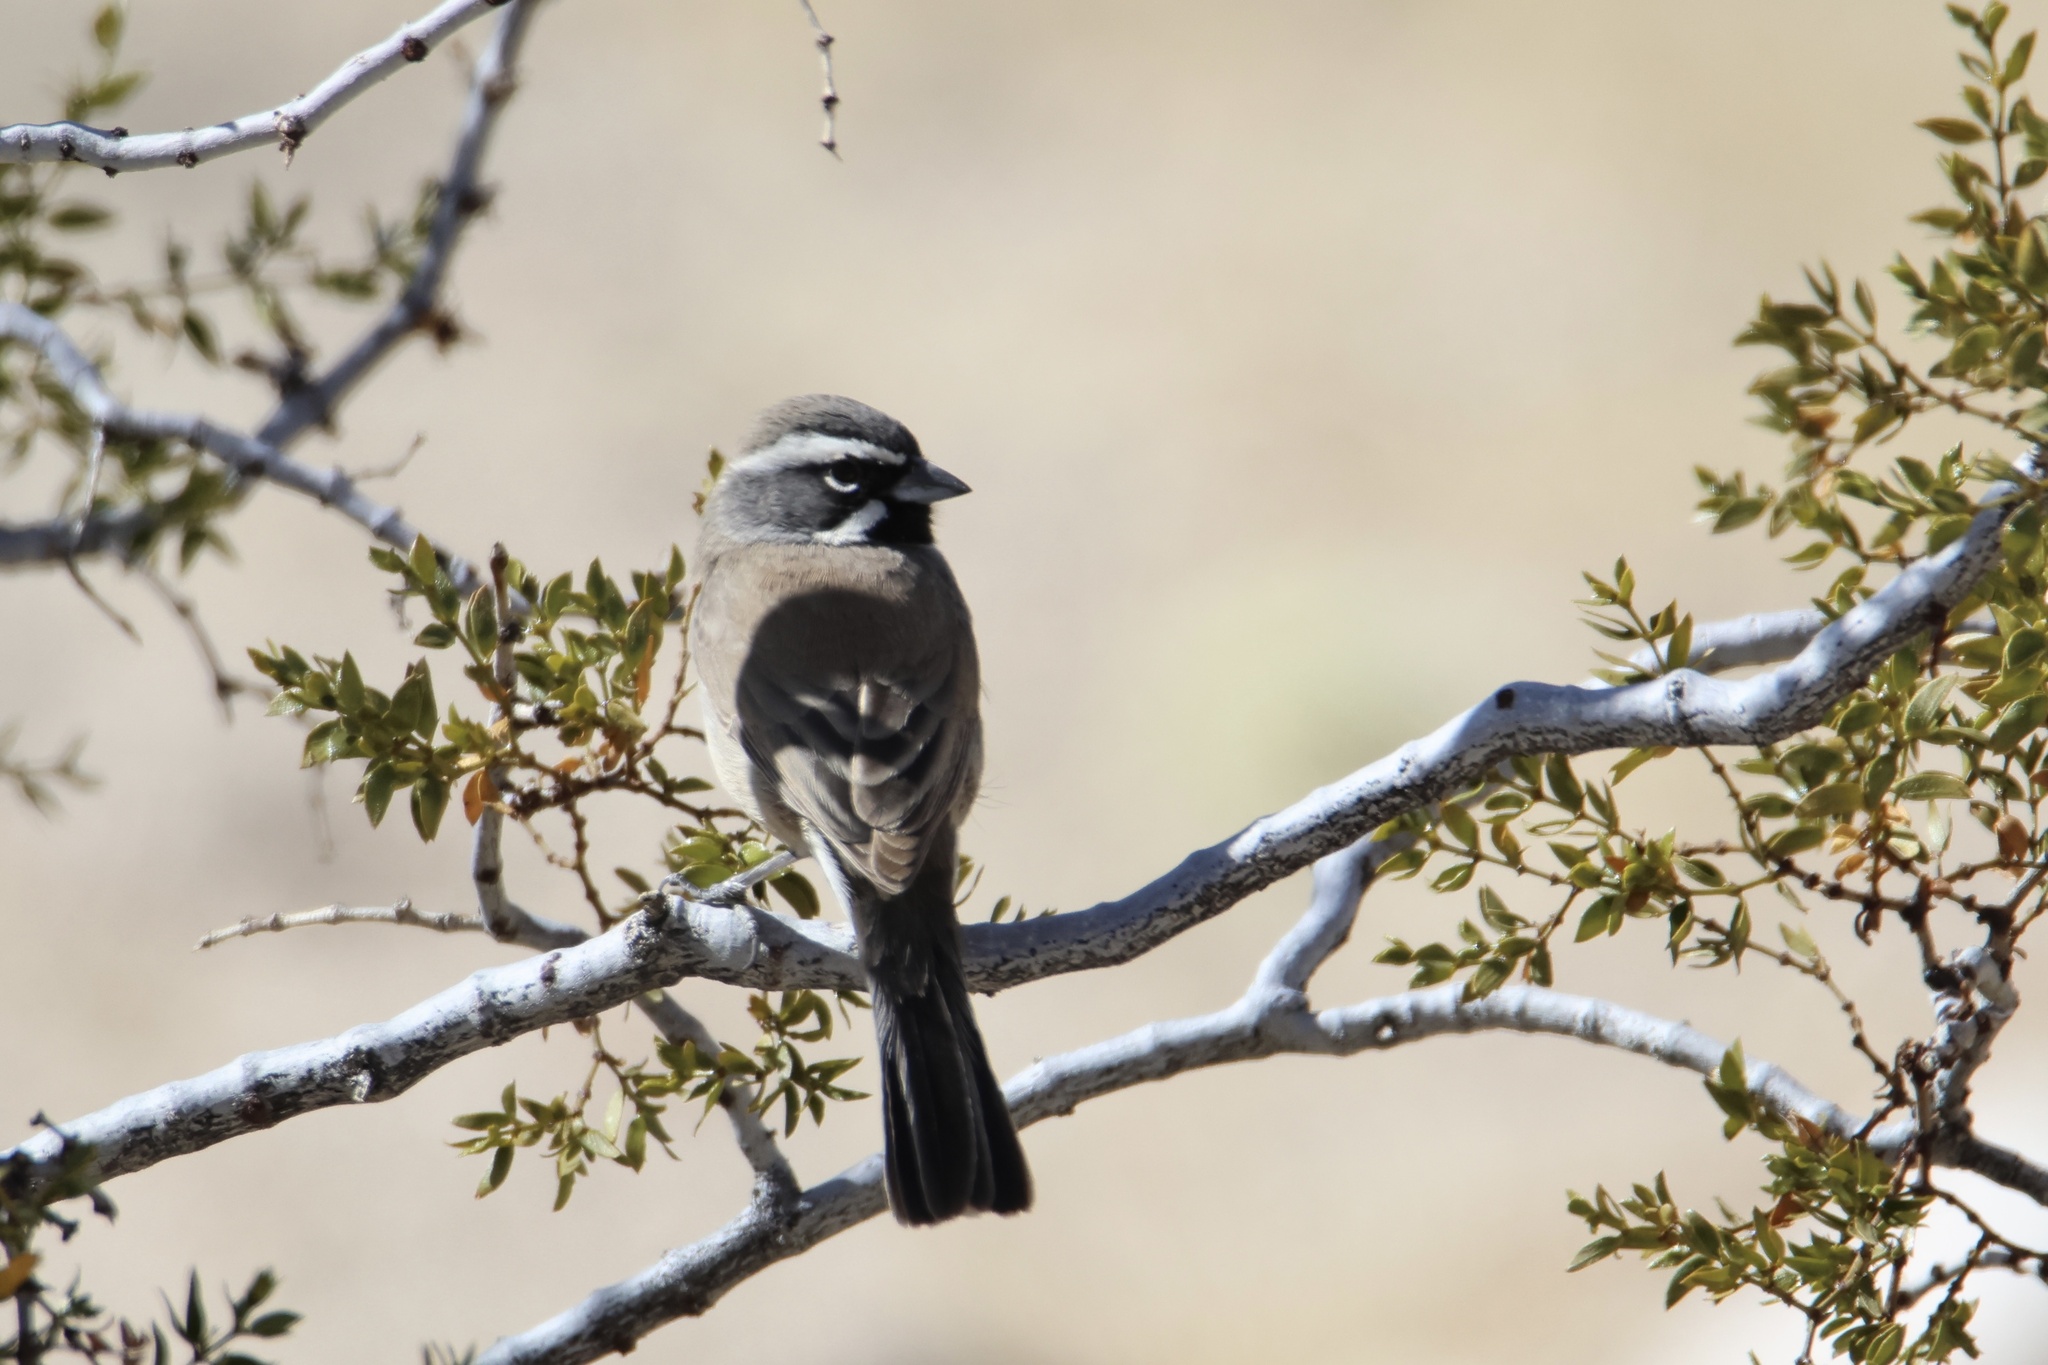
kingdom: Animalia
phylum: Chordata
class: Aves
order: Passeriformes
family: Passerellidae
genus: Amphispiza
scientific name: Amphispiza bilineata
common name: Black-throated sparrow
